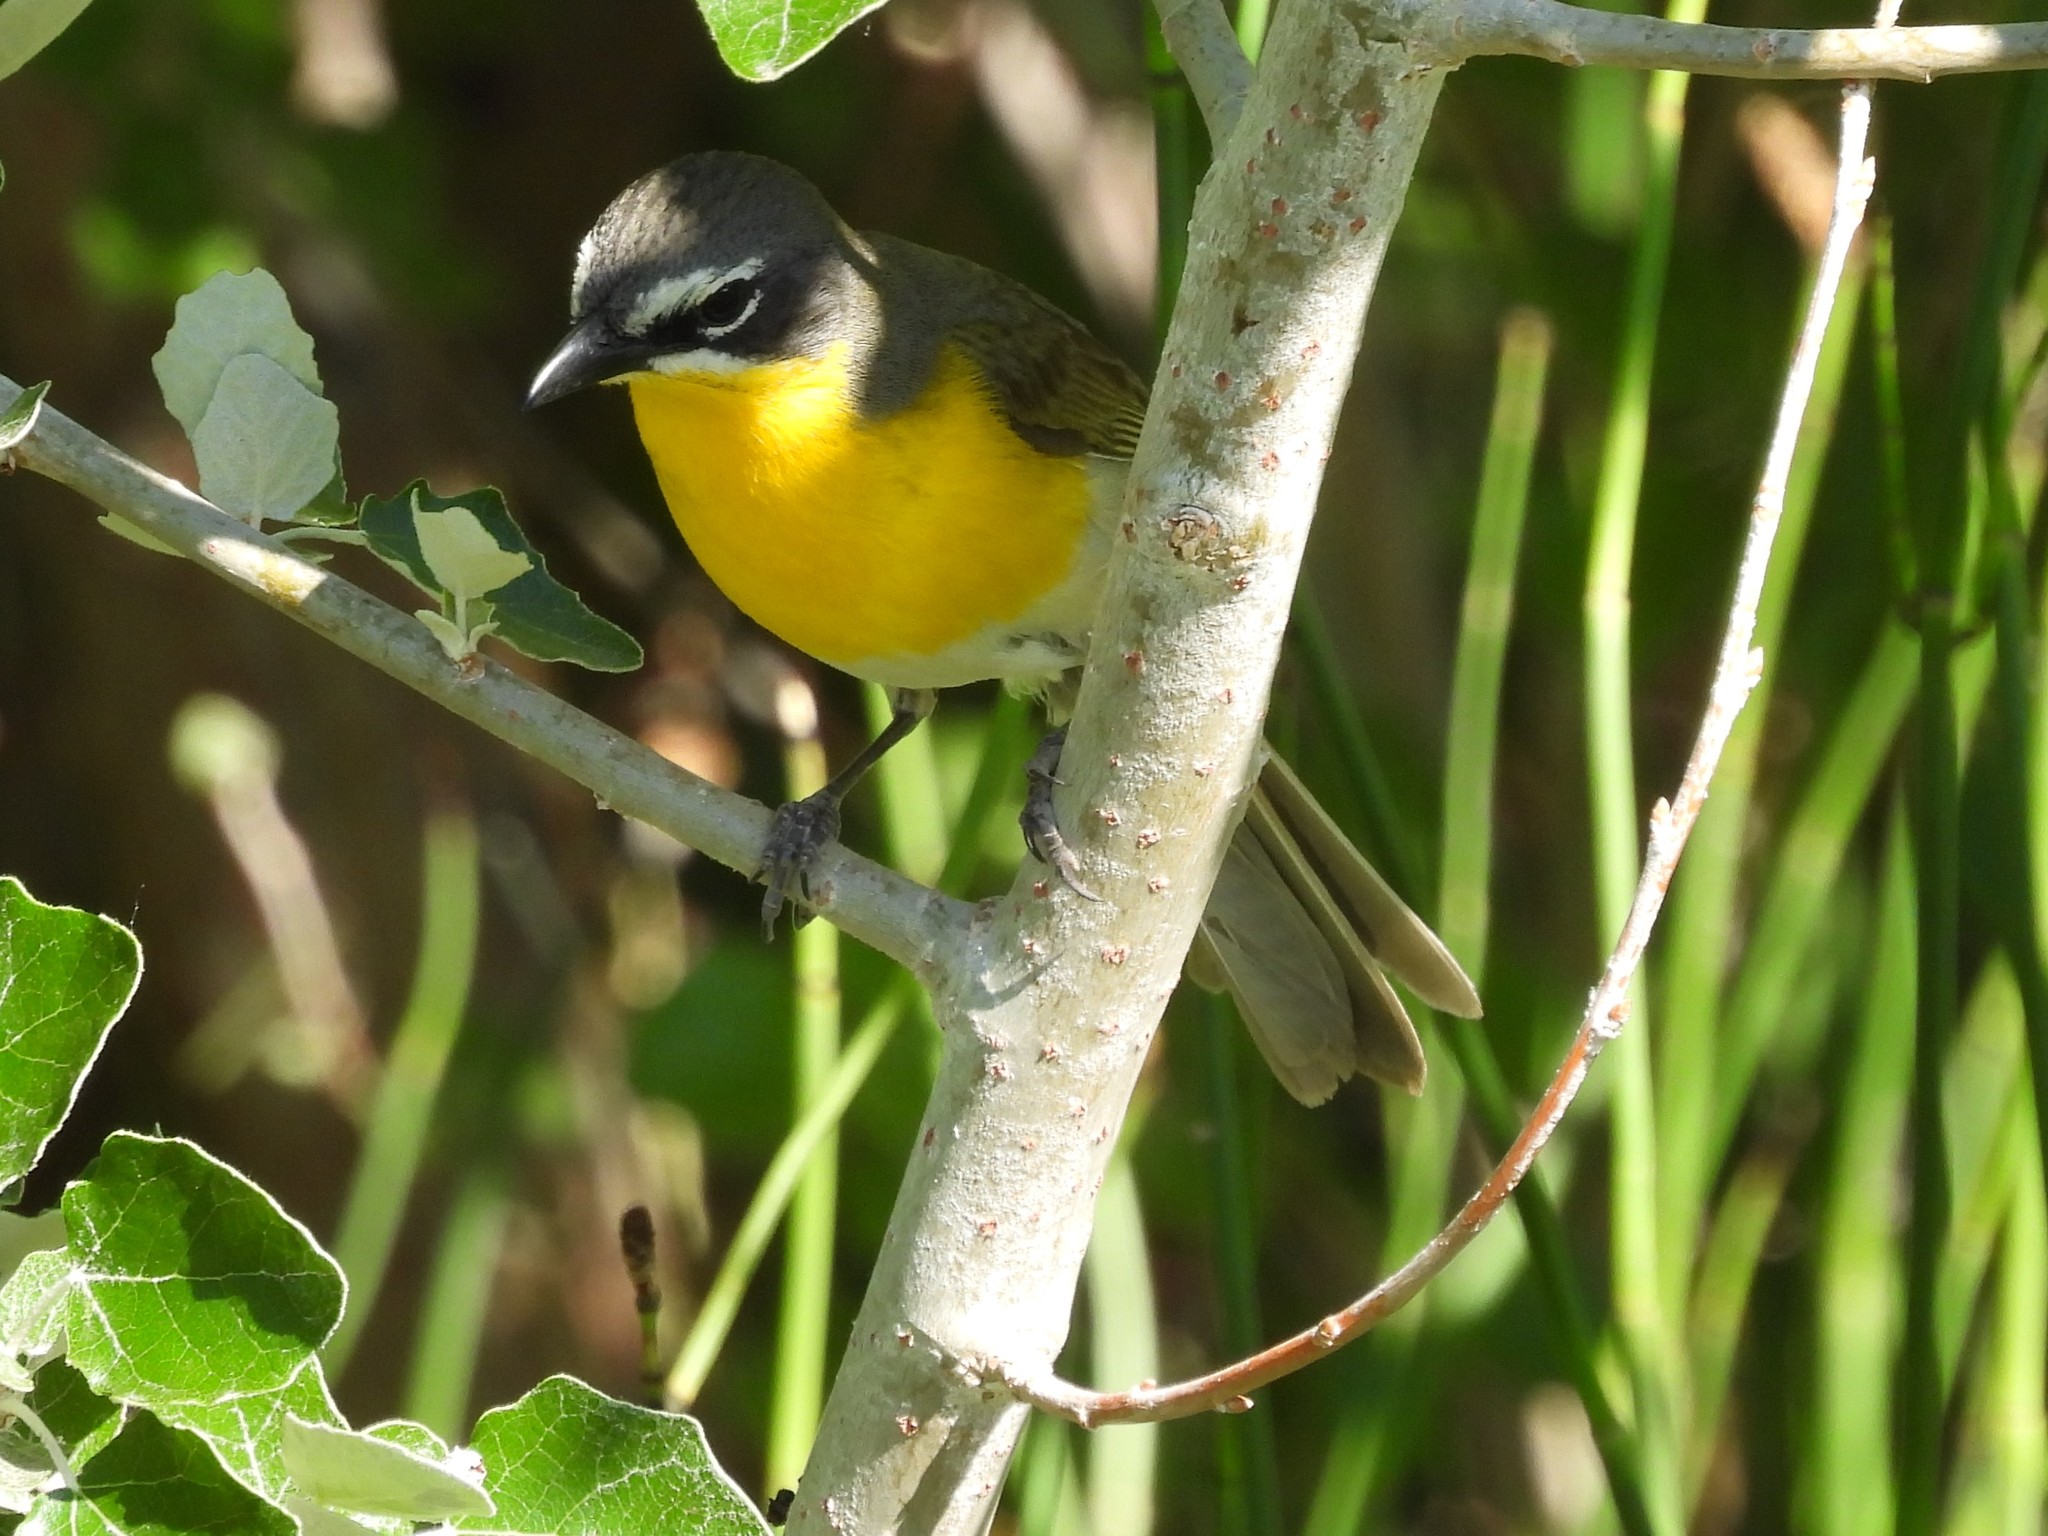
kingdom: Animalia
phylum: Chordata
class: Aves
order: Passeriformes
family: Parulidae
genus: Icteria
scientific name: Icteria virens
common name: Yellow-breasted chat
